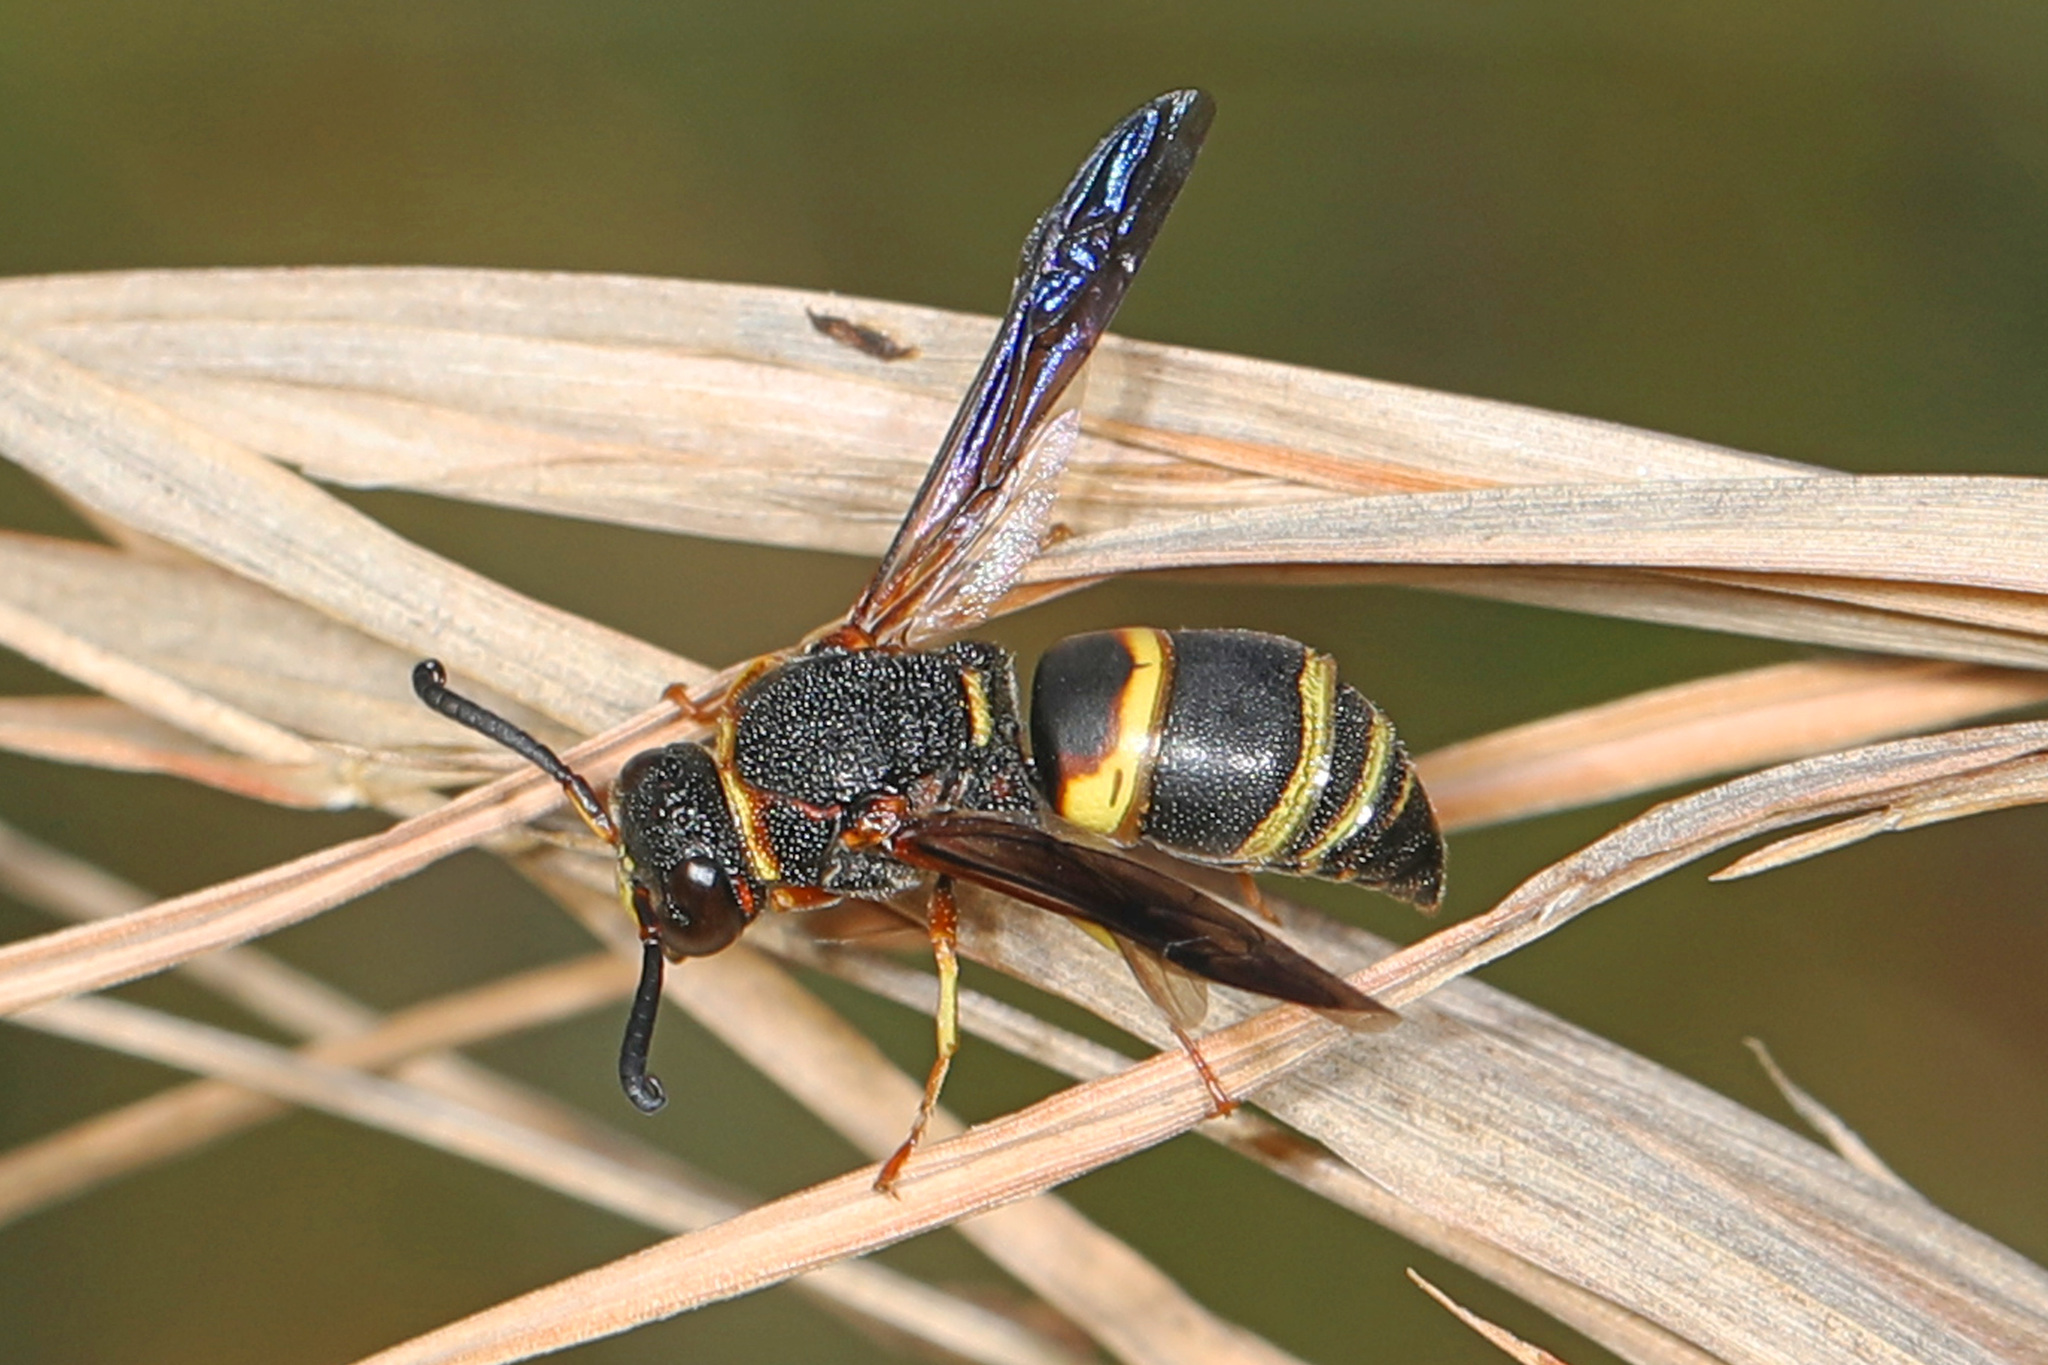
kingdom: Animalia
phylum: Arthropoda
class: Insecta
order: Hymenoptera
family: Eumenidae
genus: Euodynerus
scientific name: Euodynerus hidalgo
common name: Wasp
